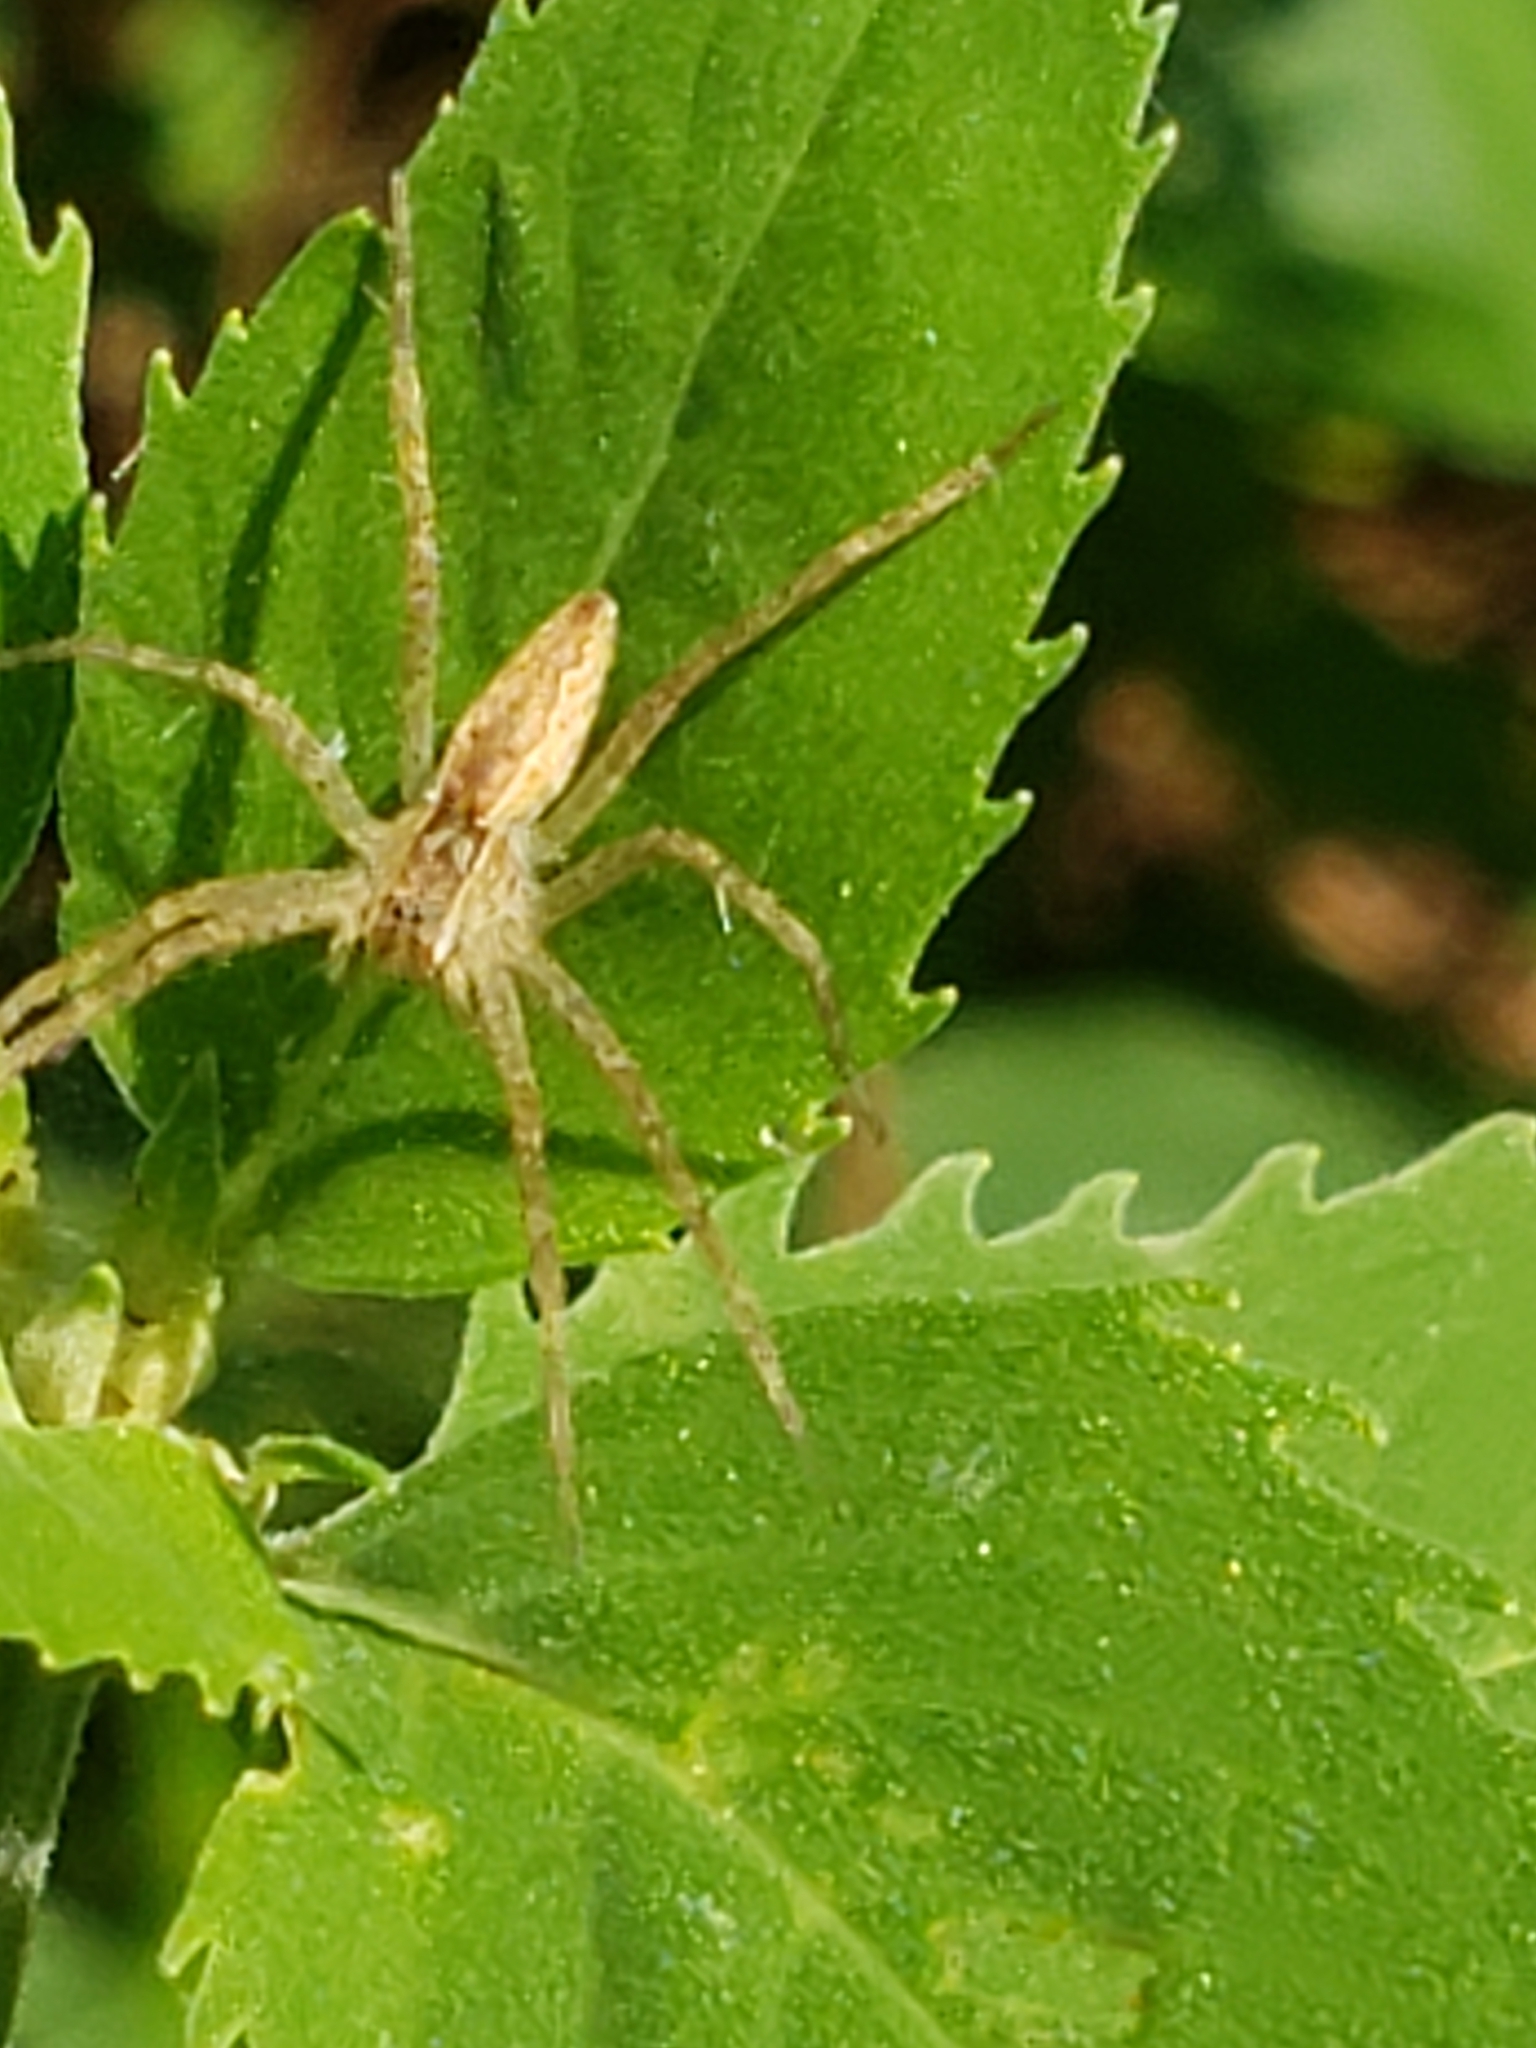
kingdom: Animalia
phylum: Arthropoda
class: Arachnida
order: Araneae
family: Pisauridae
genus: Pisaurina
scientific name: Pisaurina mira
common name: American nursery web spider
